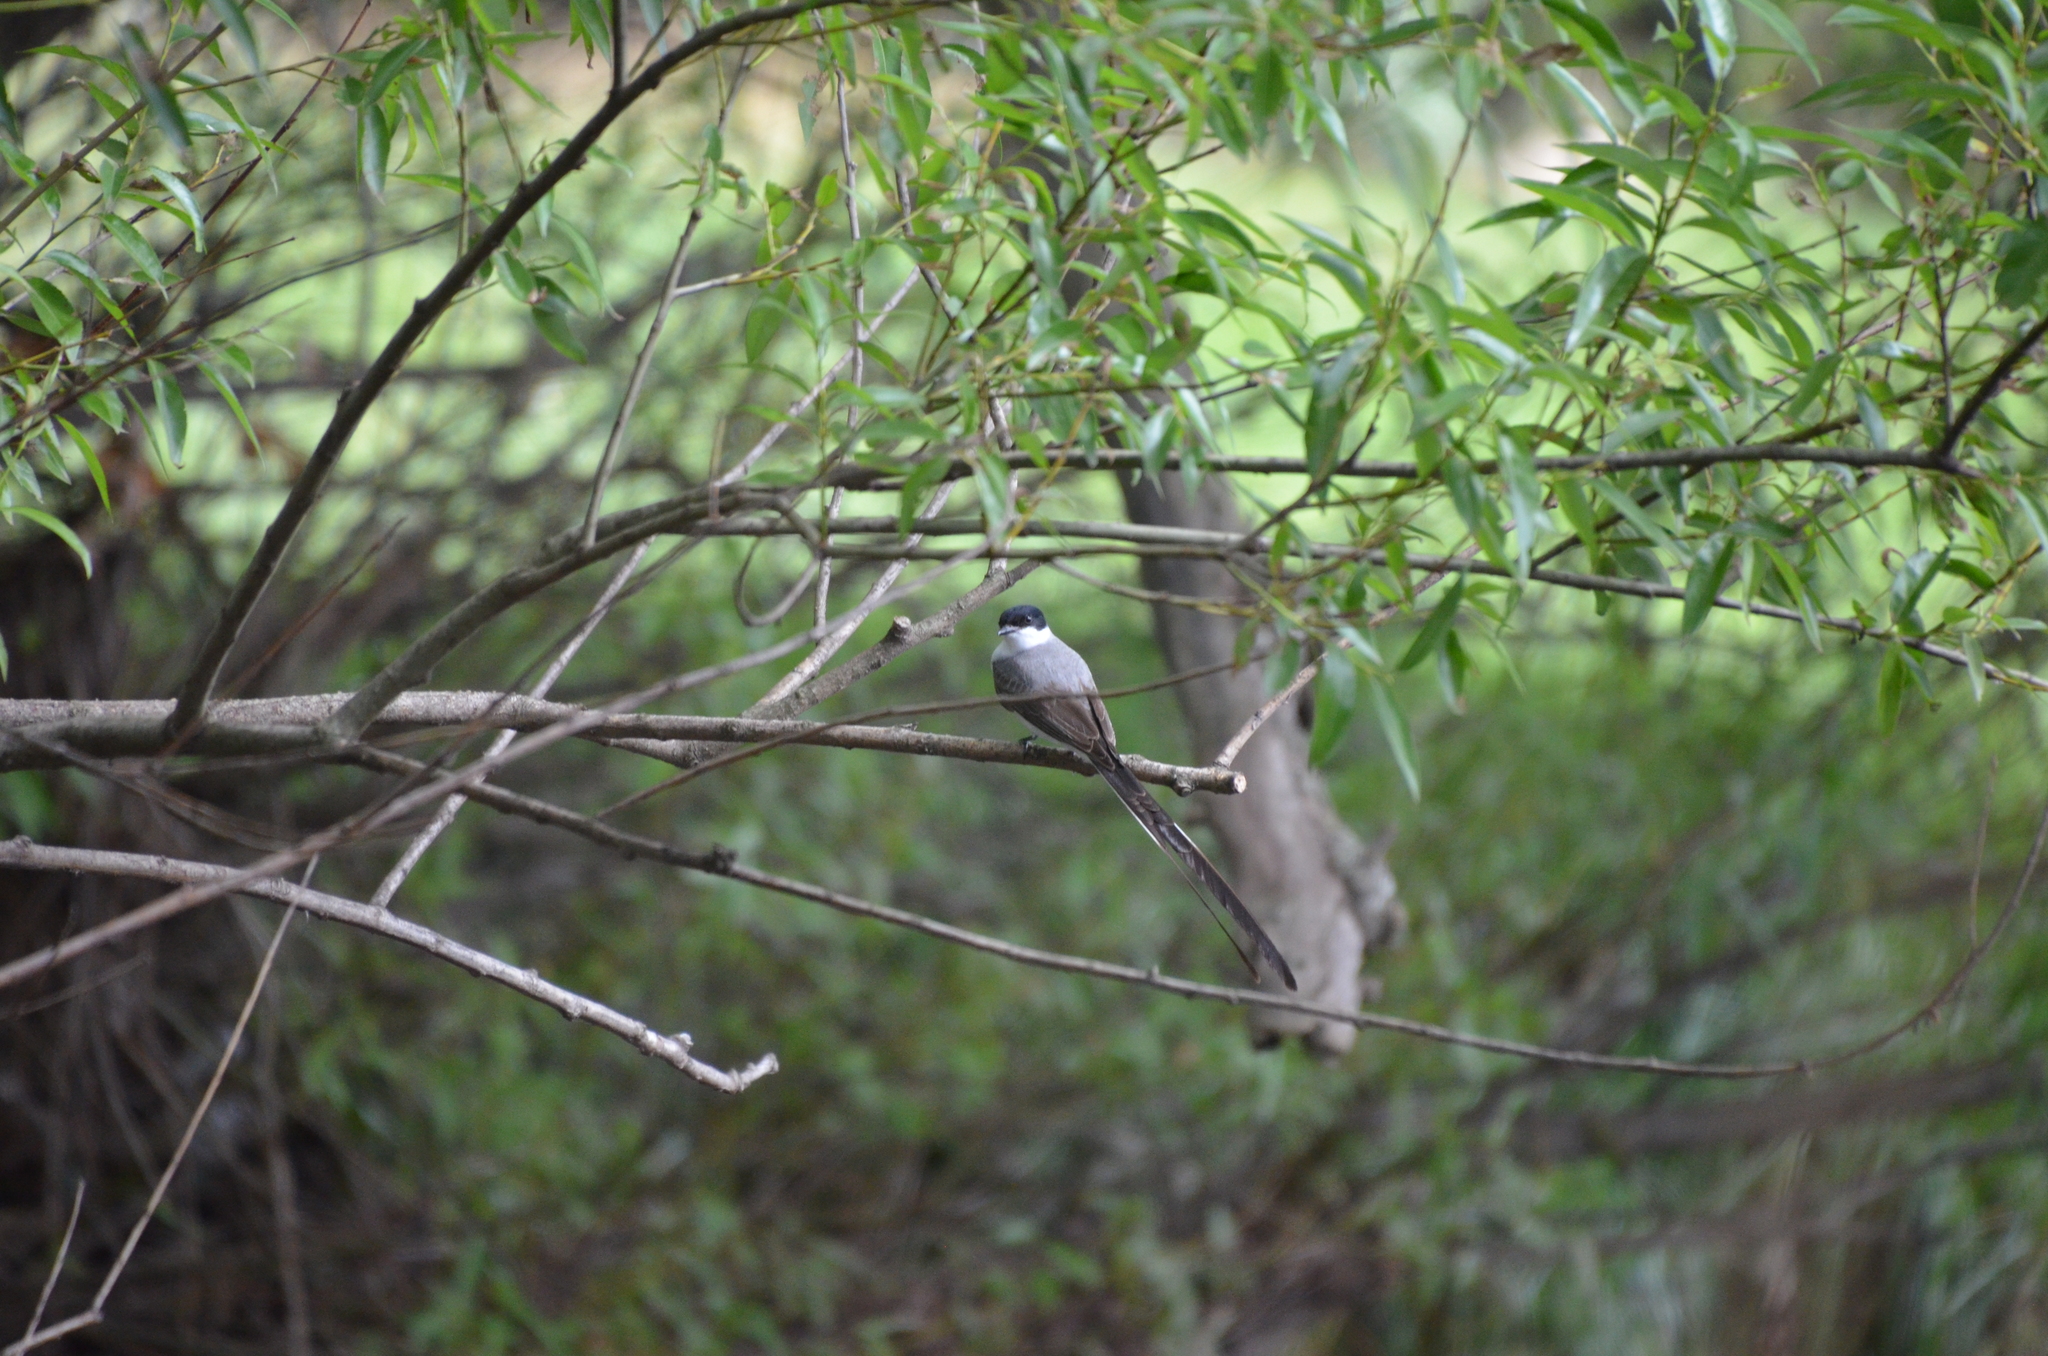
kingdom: Animalia
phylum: Chordata
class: Aves
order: Passeriformes
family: Tyrannidae
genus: Tyrannus
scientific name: Tyrannus savana
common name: Fork-tailed flycatcher
